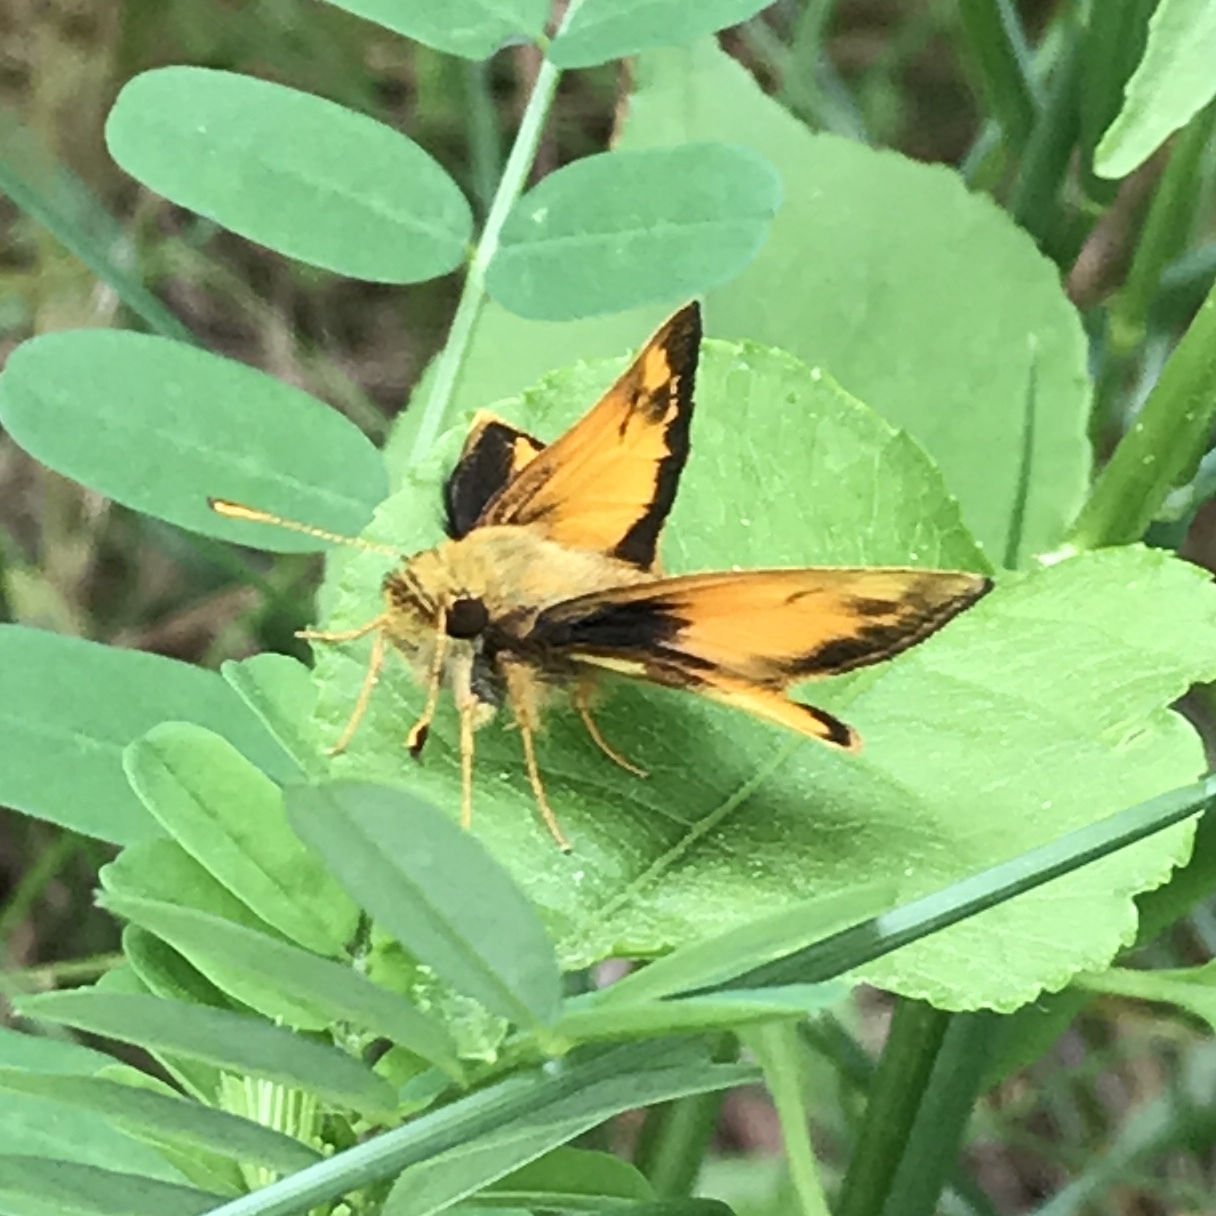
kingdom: Animalia
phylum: Arthropoda
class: Insecta
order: Lepidoptera
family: Hesperiidae
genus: Lon
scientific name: Lon zabulon
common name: Zabulon skipper
